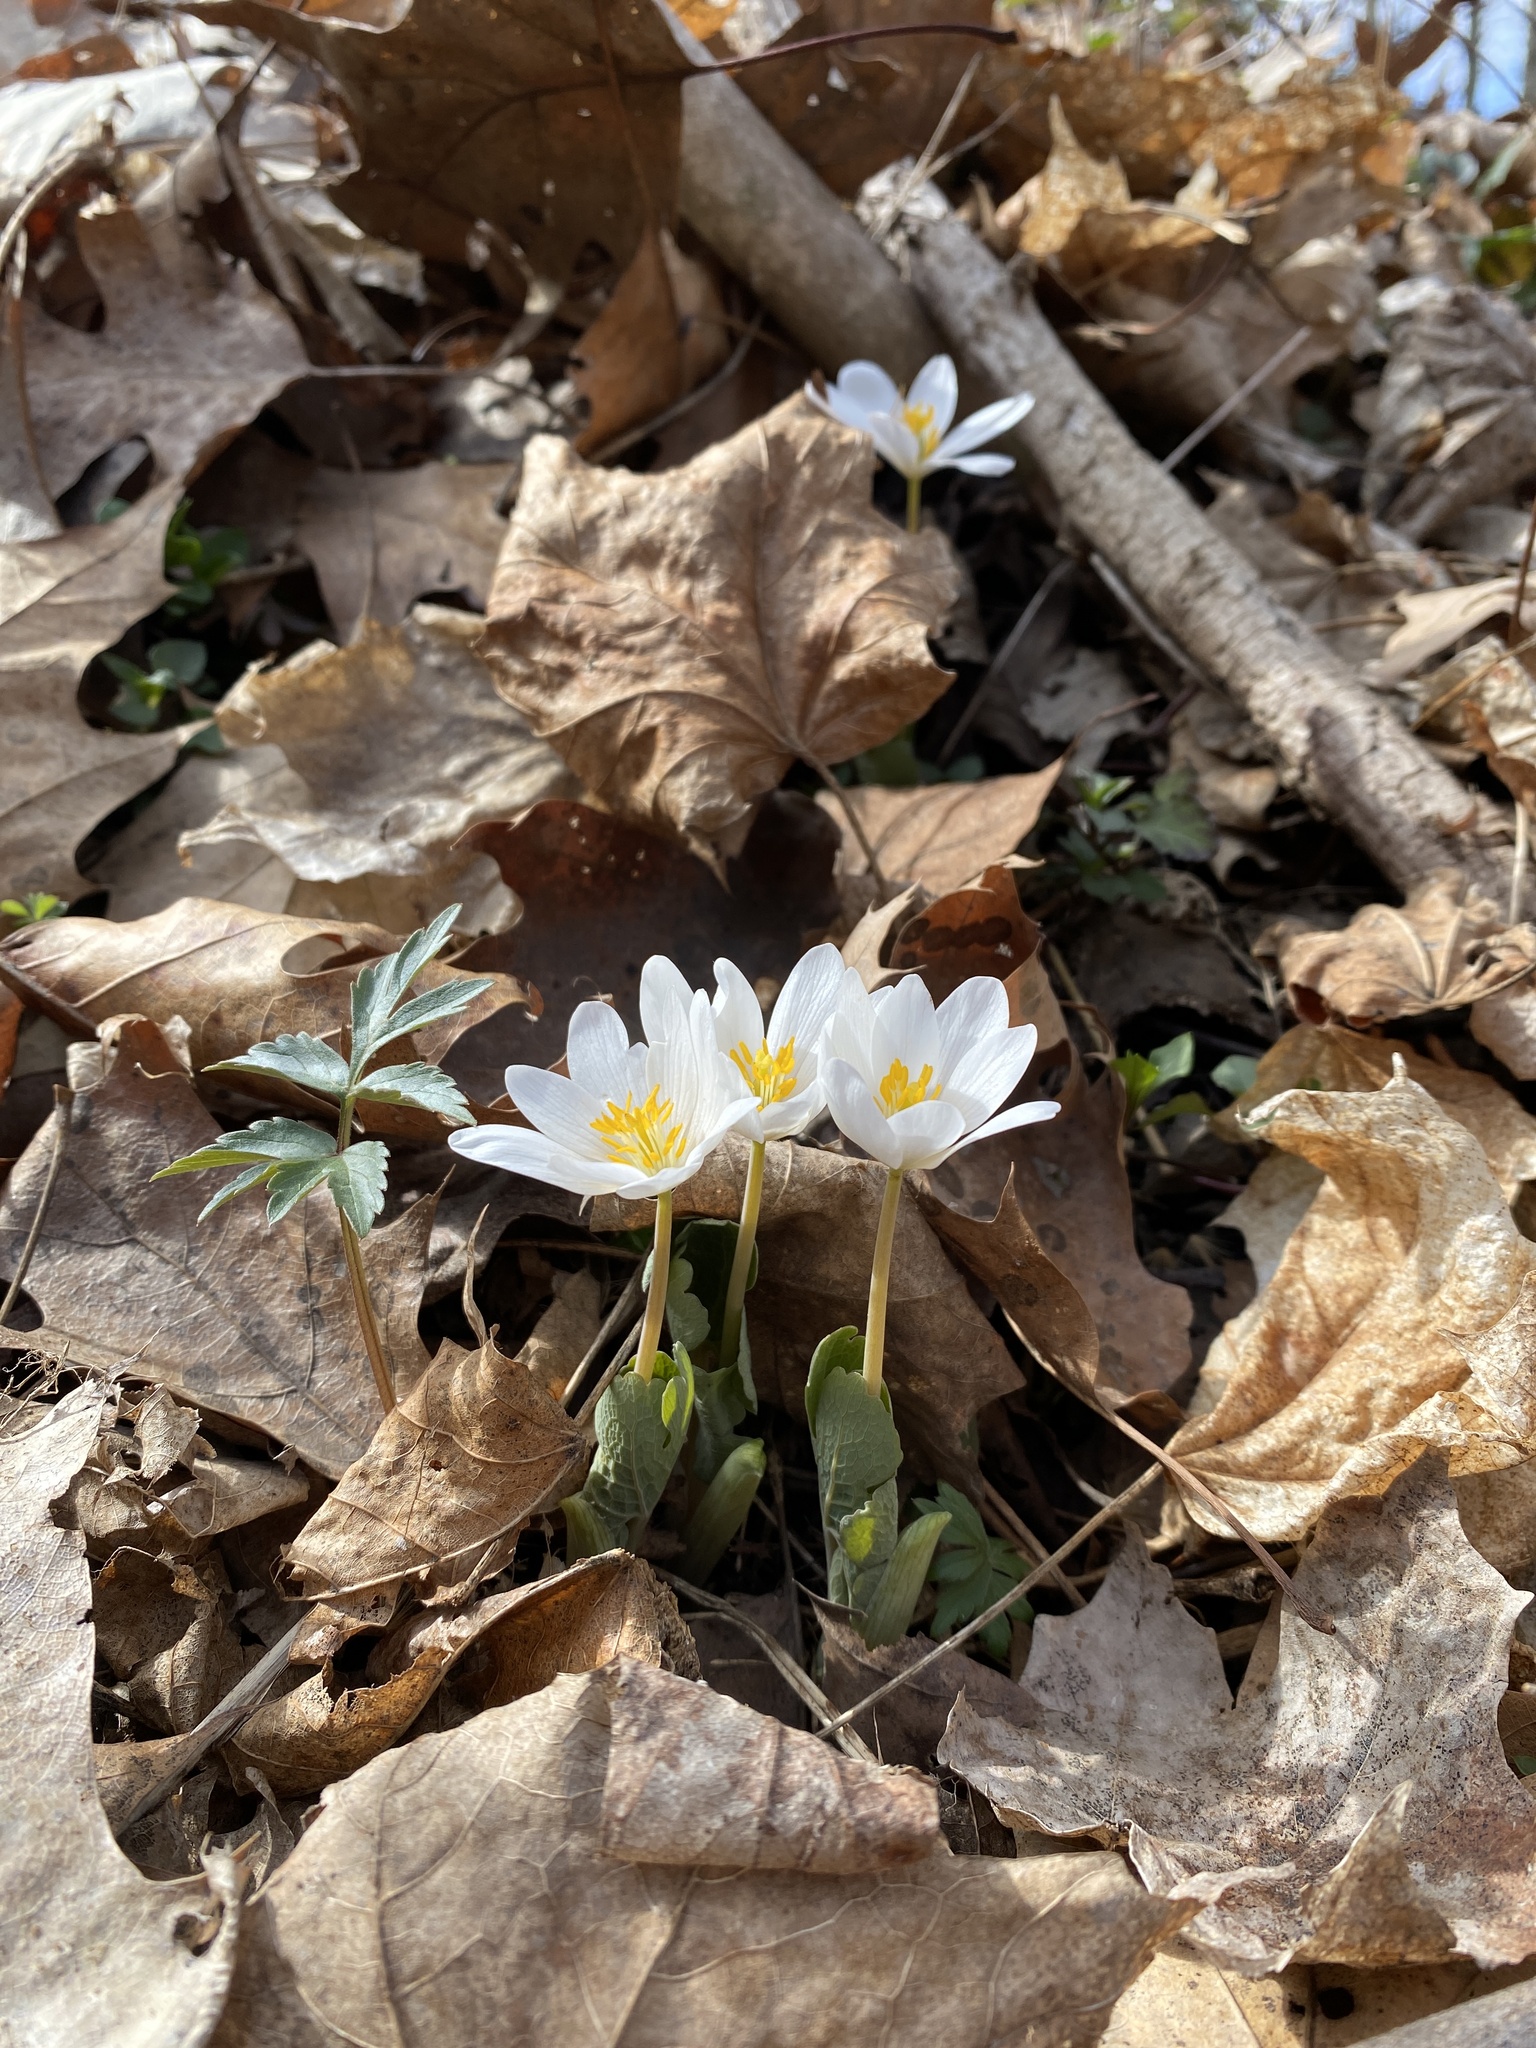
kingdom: Plantae
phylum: Tracheophyta
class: Magnoliopsida
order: Ranunculales
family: Papaveraceae
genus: Sanguinaria
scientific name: Sanguinaria canadensis
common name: Bloodroot
